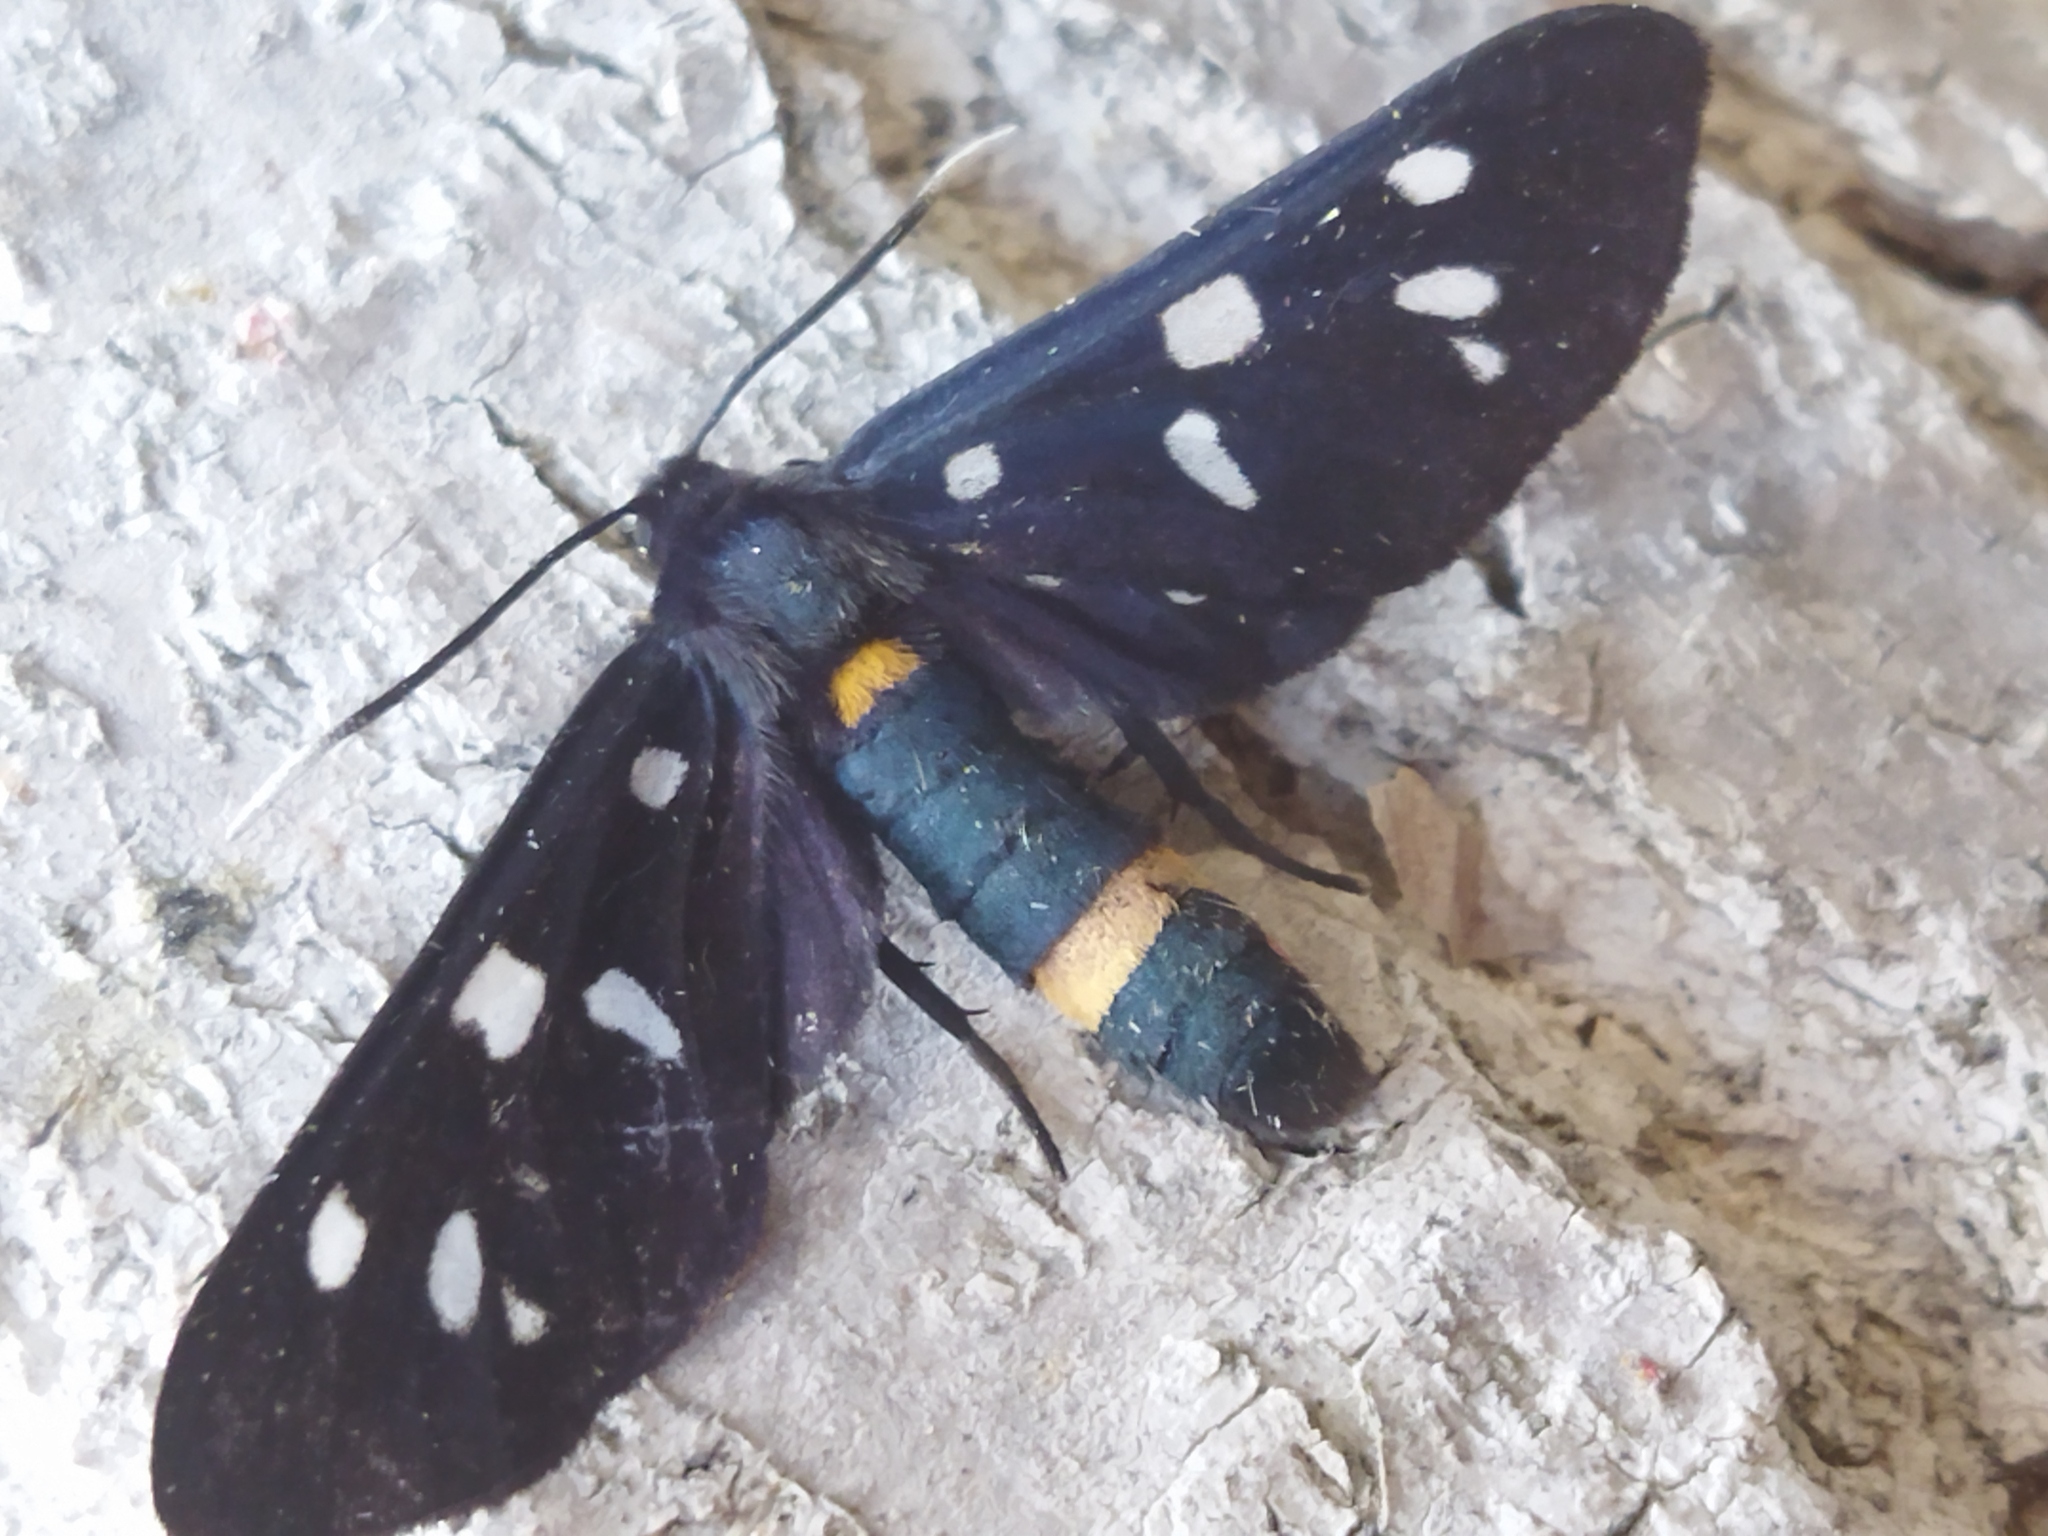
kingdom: Animalia
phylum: Arthropoda
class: Insecta
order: Lepidoptera
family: Erebidae
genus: Amata
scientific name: Amata phegea
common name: Nine-spotted
